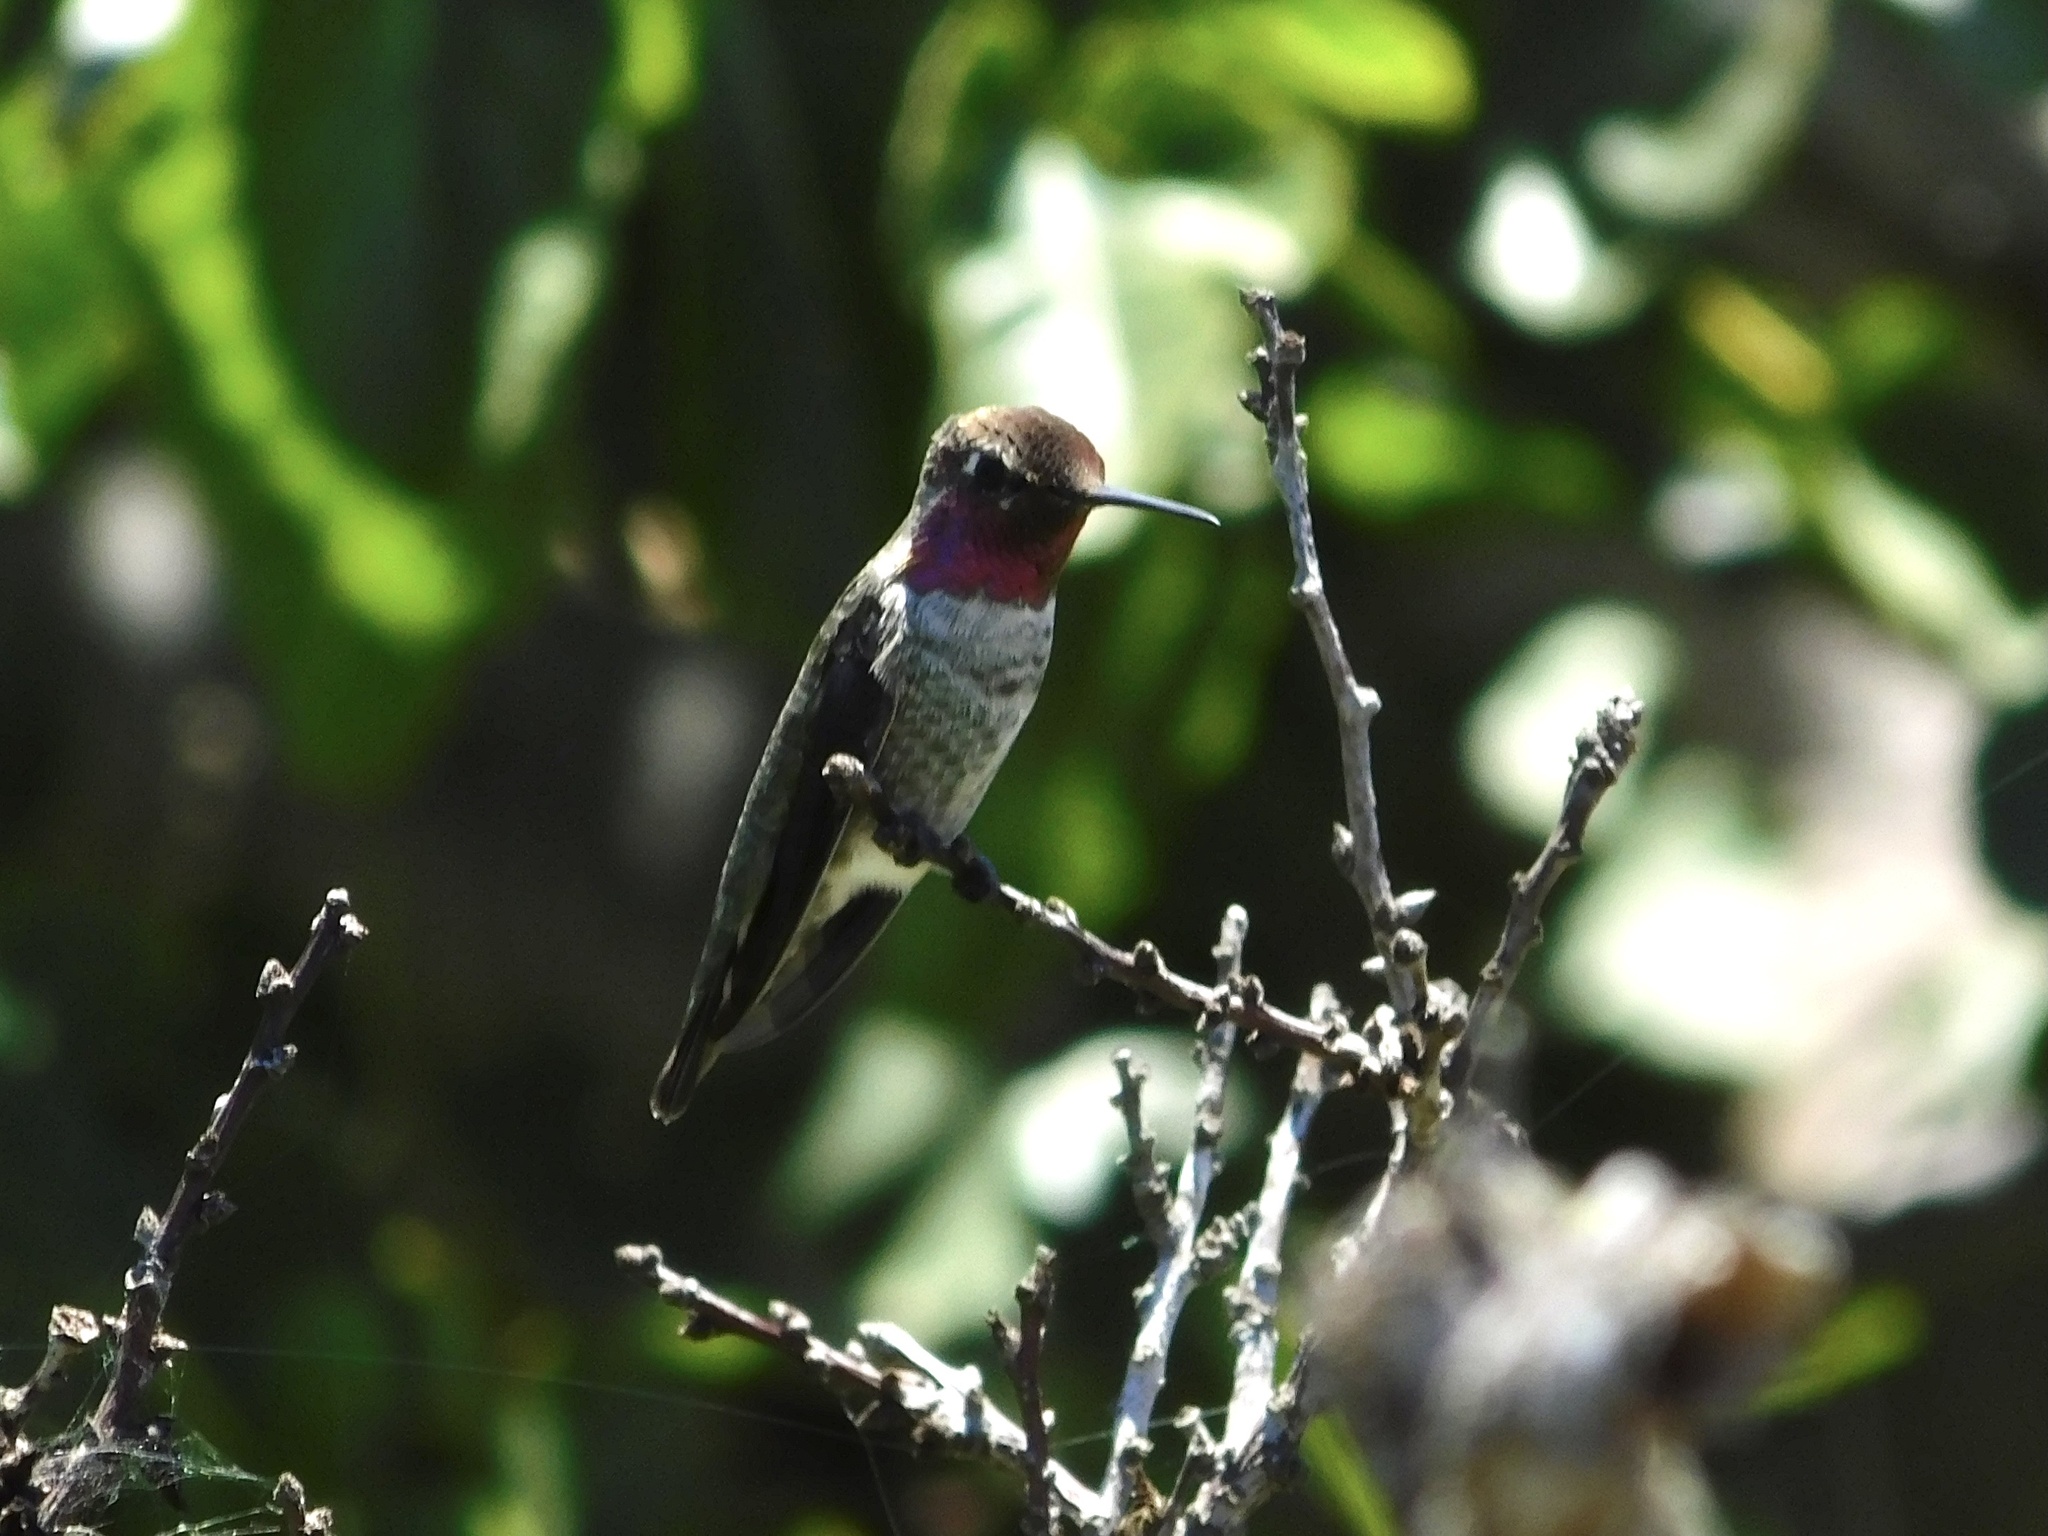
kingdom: Animalia
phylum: Chordata
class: Aves
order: Apodiformes
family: Trochilidae
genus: Calypte
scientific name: Calypte anna
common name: Anna's hummingbird
